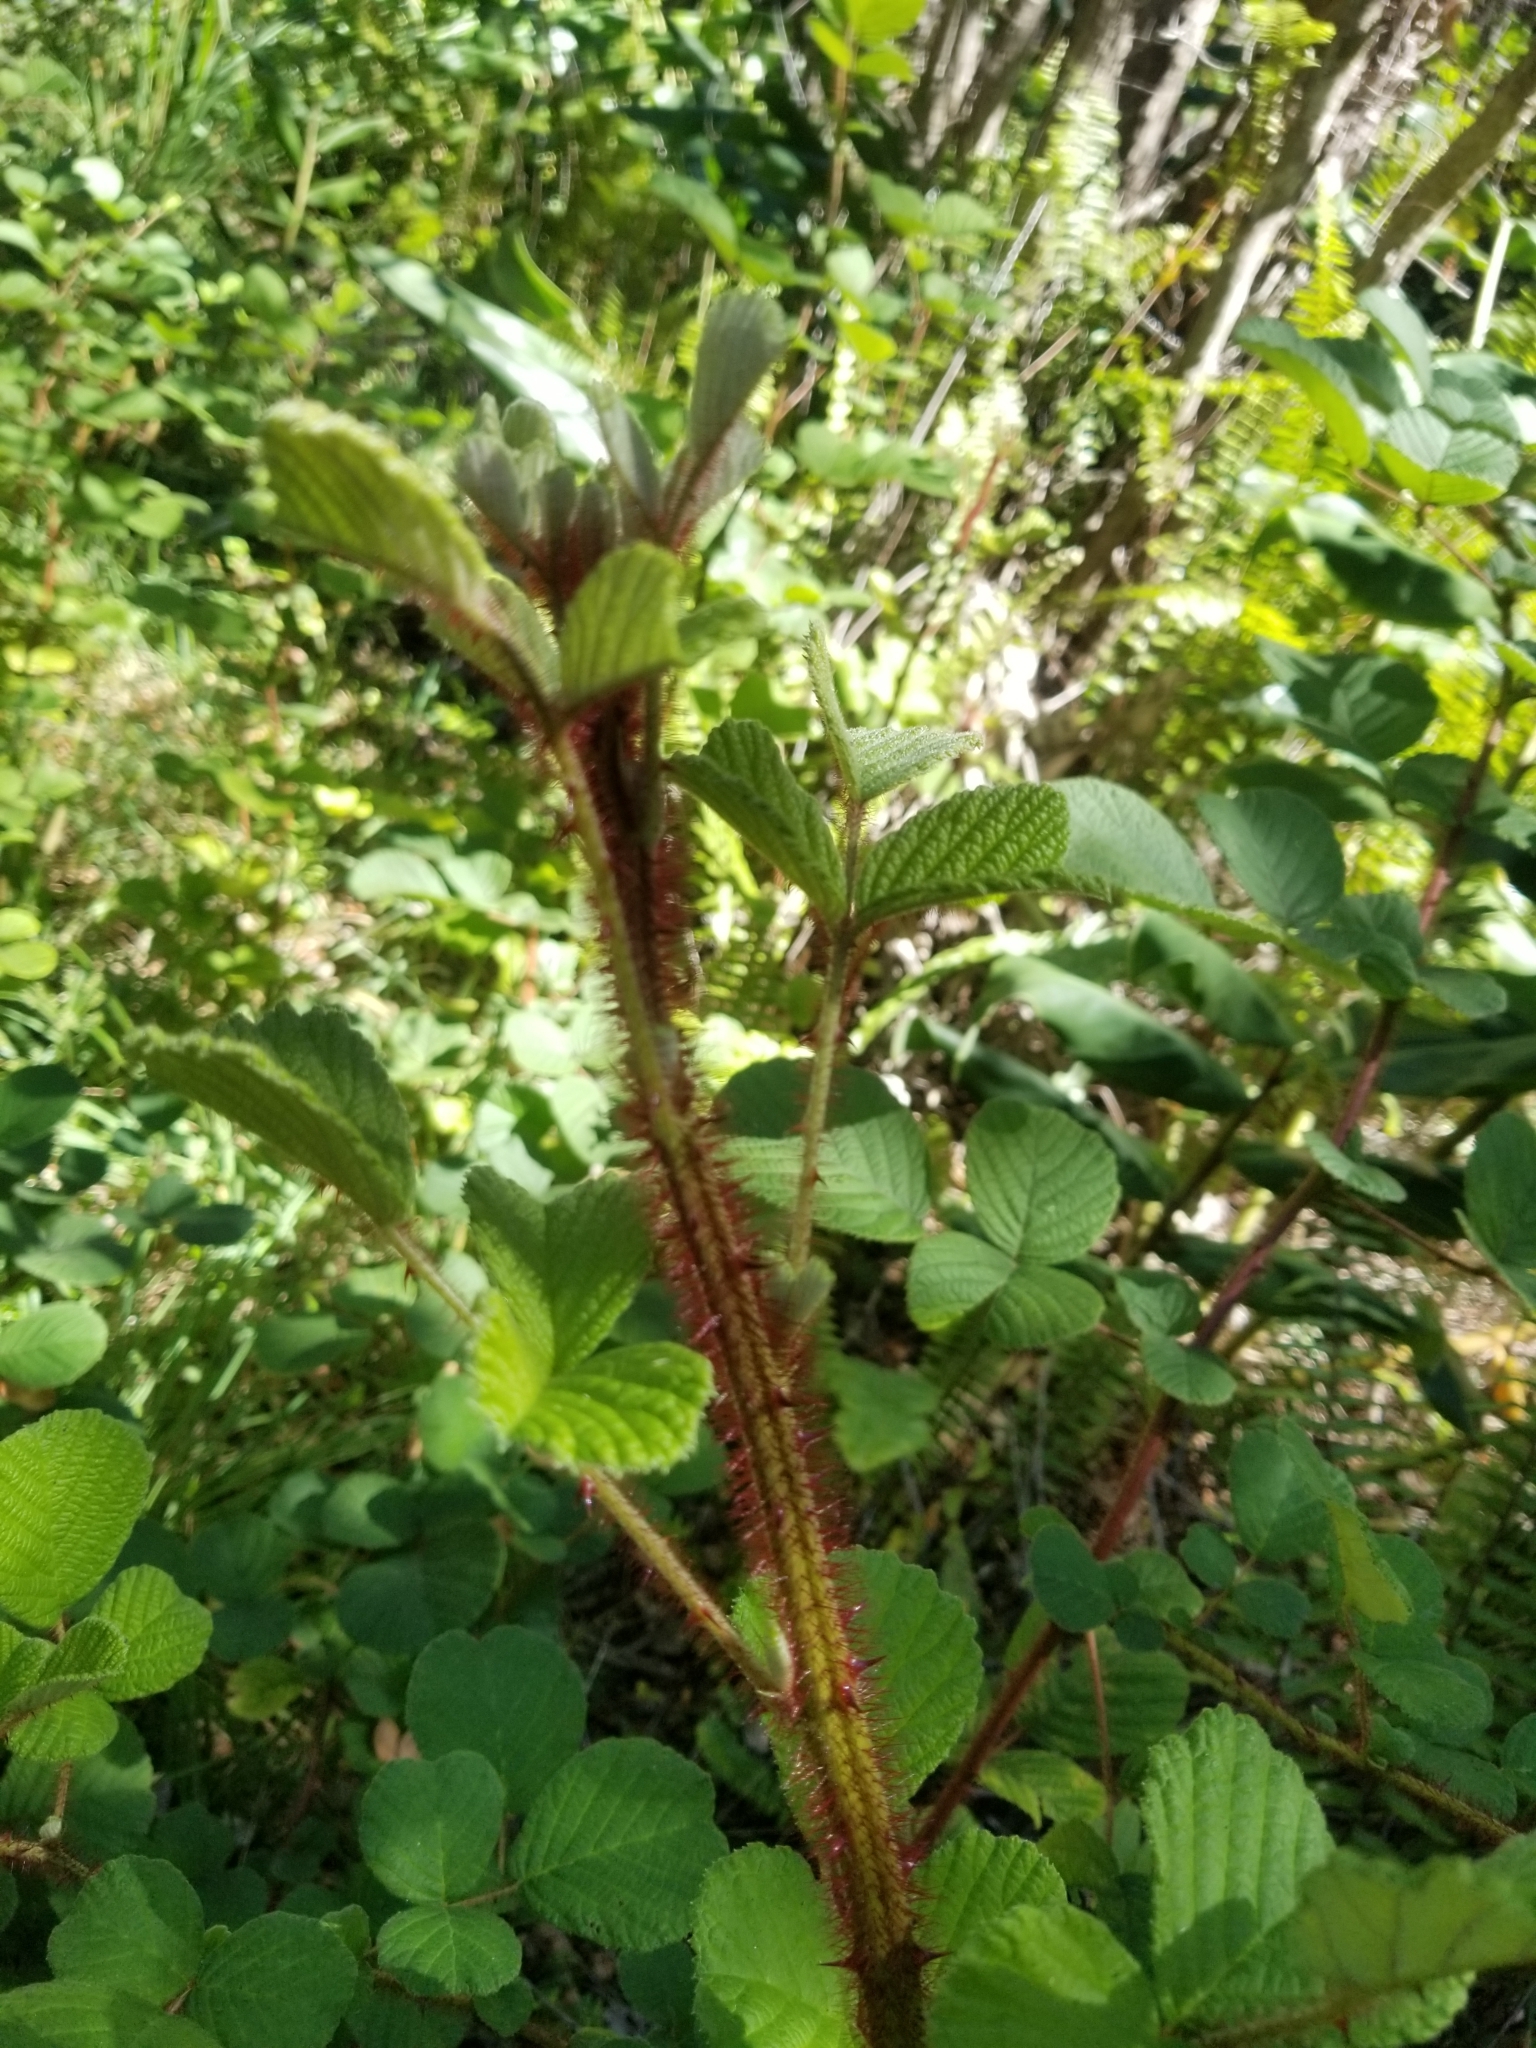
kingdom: Plantae
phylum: Tracheophyta
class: Magnoliopsida
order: Rosales
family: Rosaceae
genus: Rubus
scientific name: Rubus ellipticus
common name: Cheeseberry
